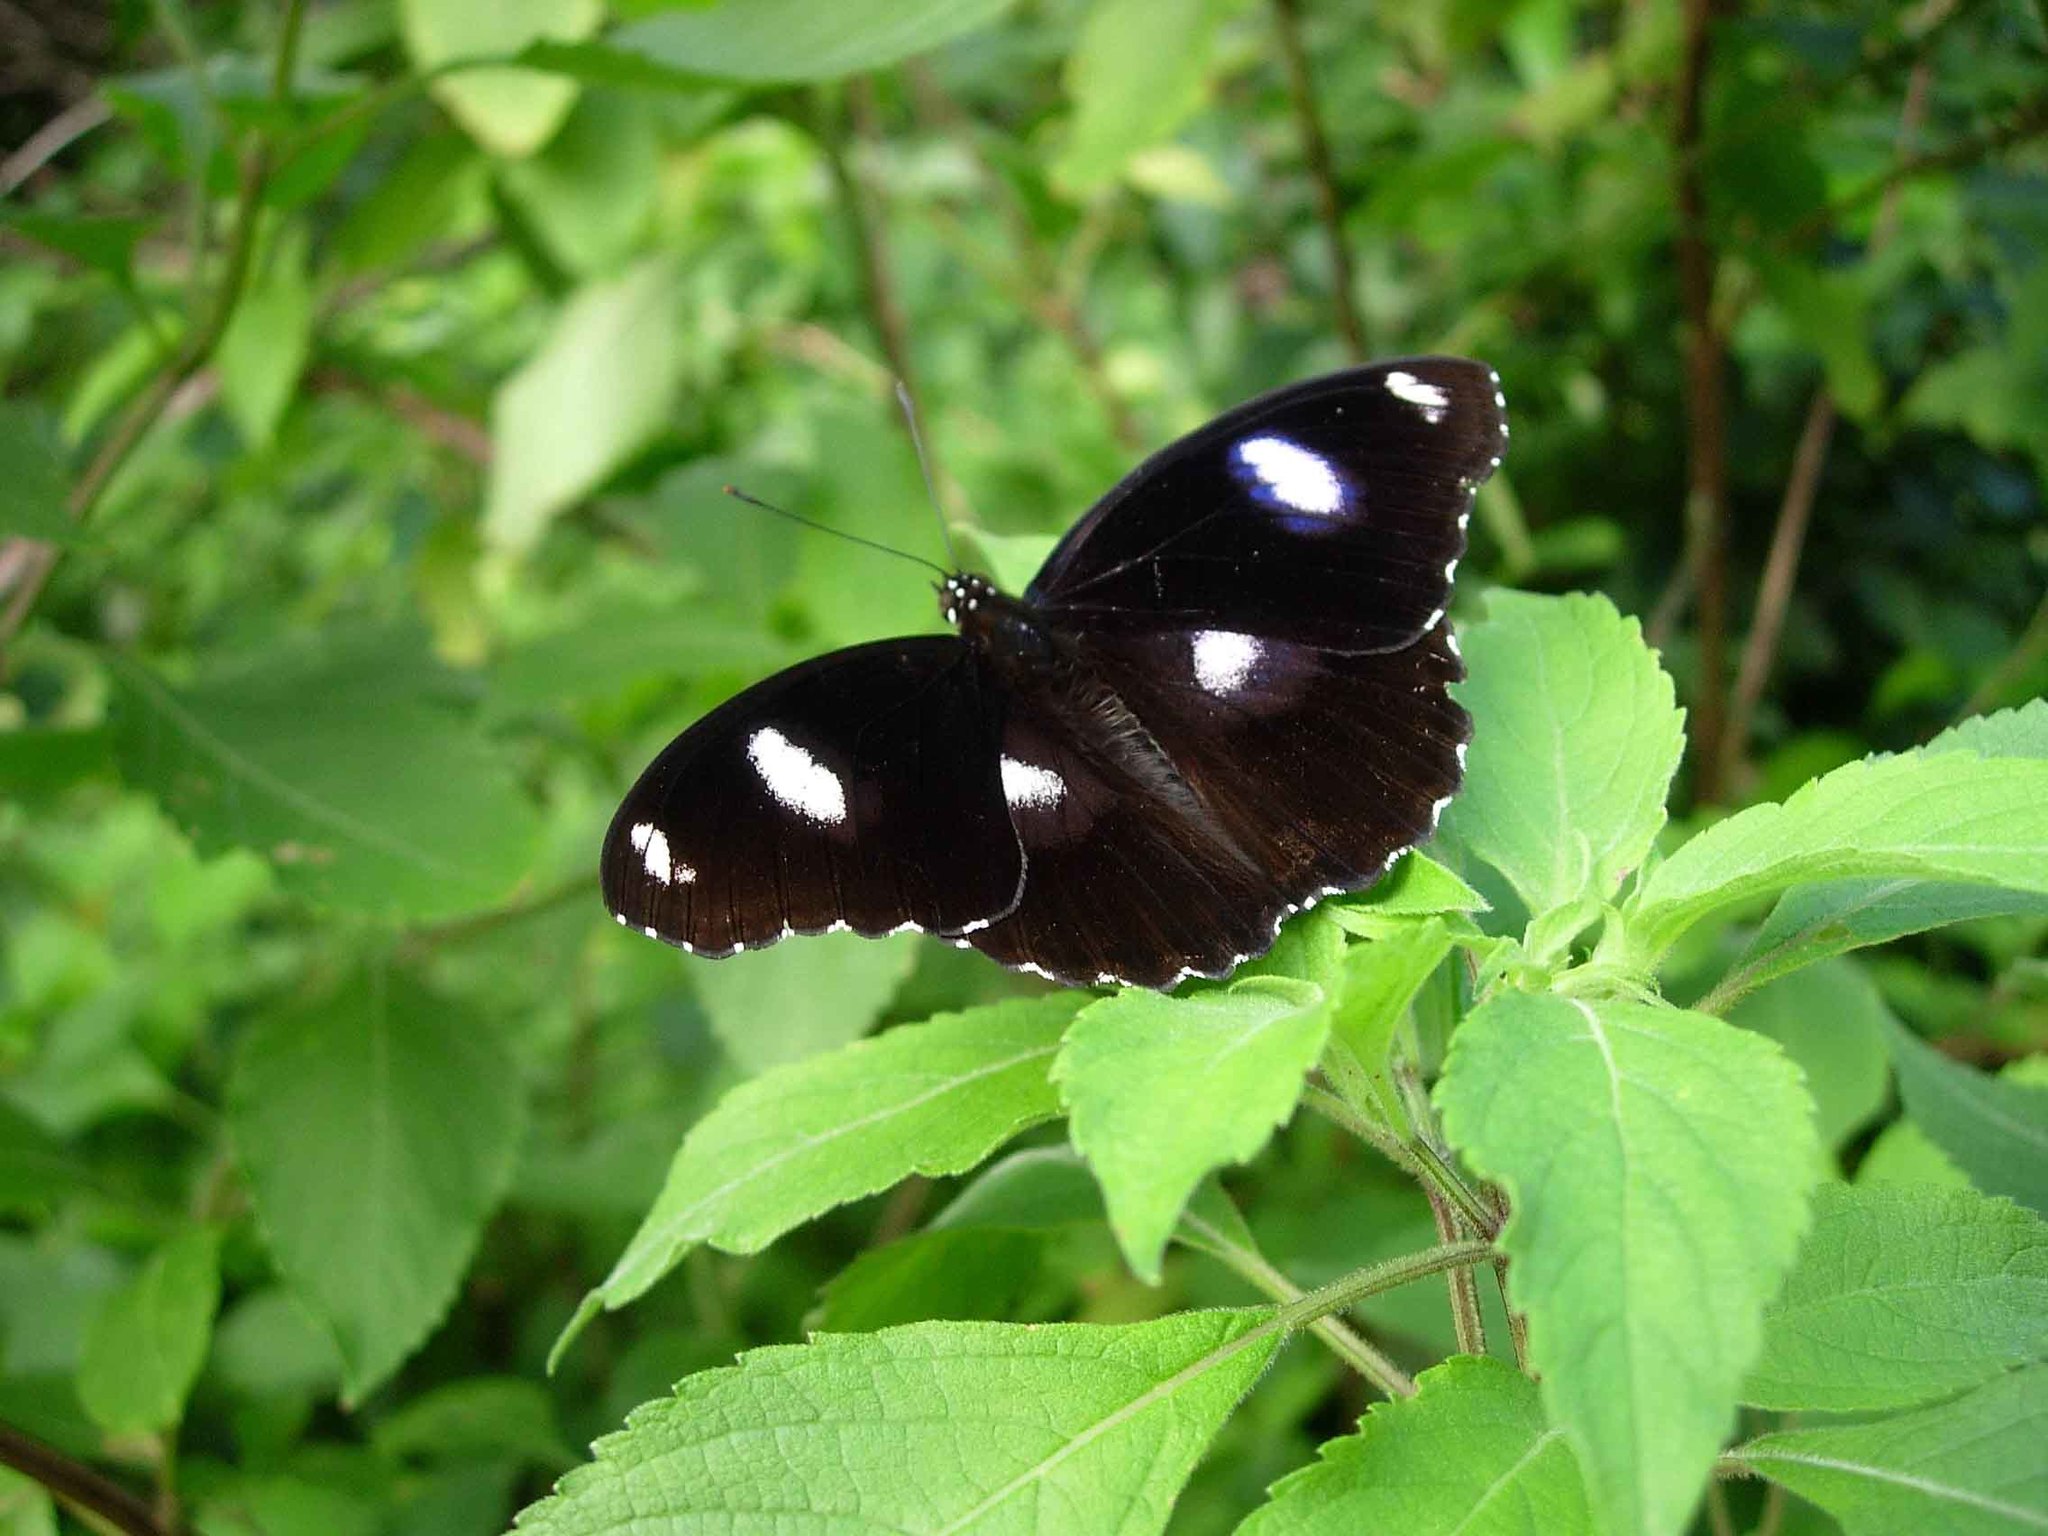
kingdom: Animalia
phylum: Arthropoda
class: Insecta
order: Lepidoptera
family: Nymphalidae
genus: Hypolimnas
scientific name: Hypolimnas bolina
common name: Great eggfly
